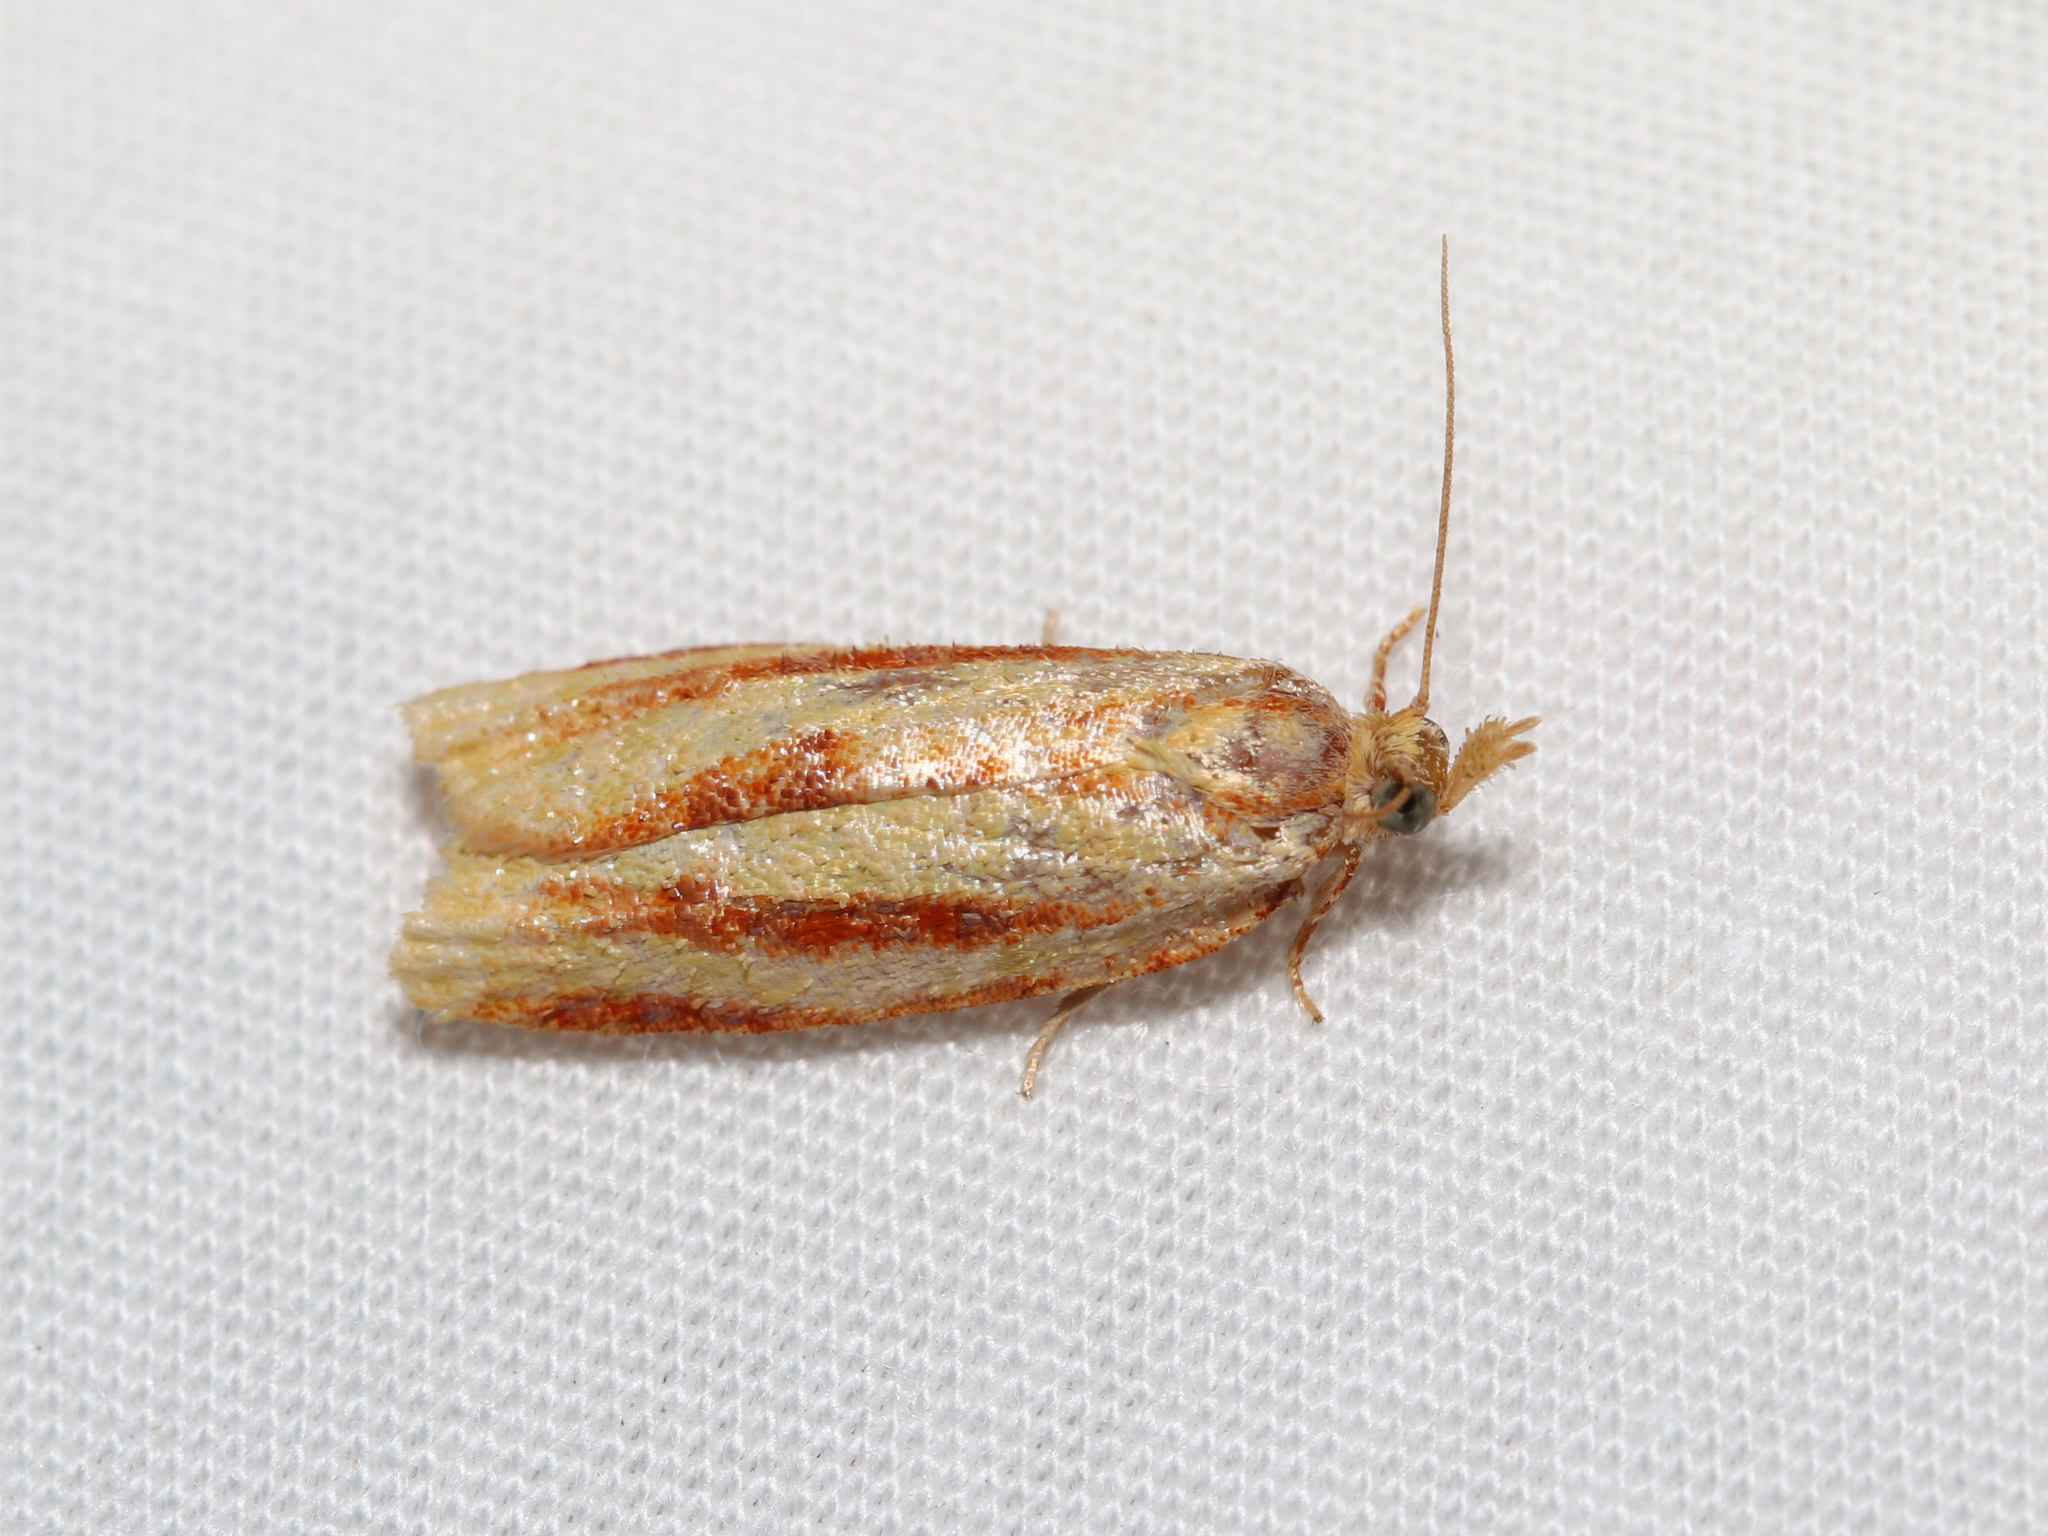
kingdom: Animalia
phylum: Arthropoda
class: Insecta
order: Lepidoptera
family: Tortricidae
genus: Sparganothis
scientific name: Sparganothis tristriata
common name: Three-streaked sparganothis moth
